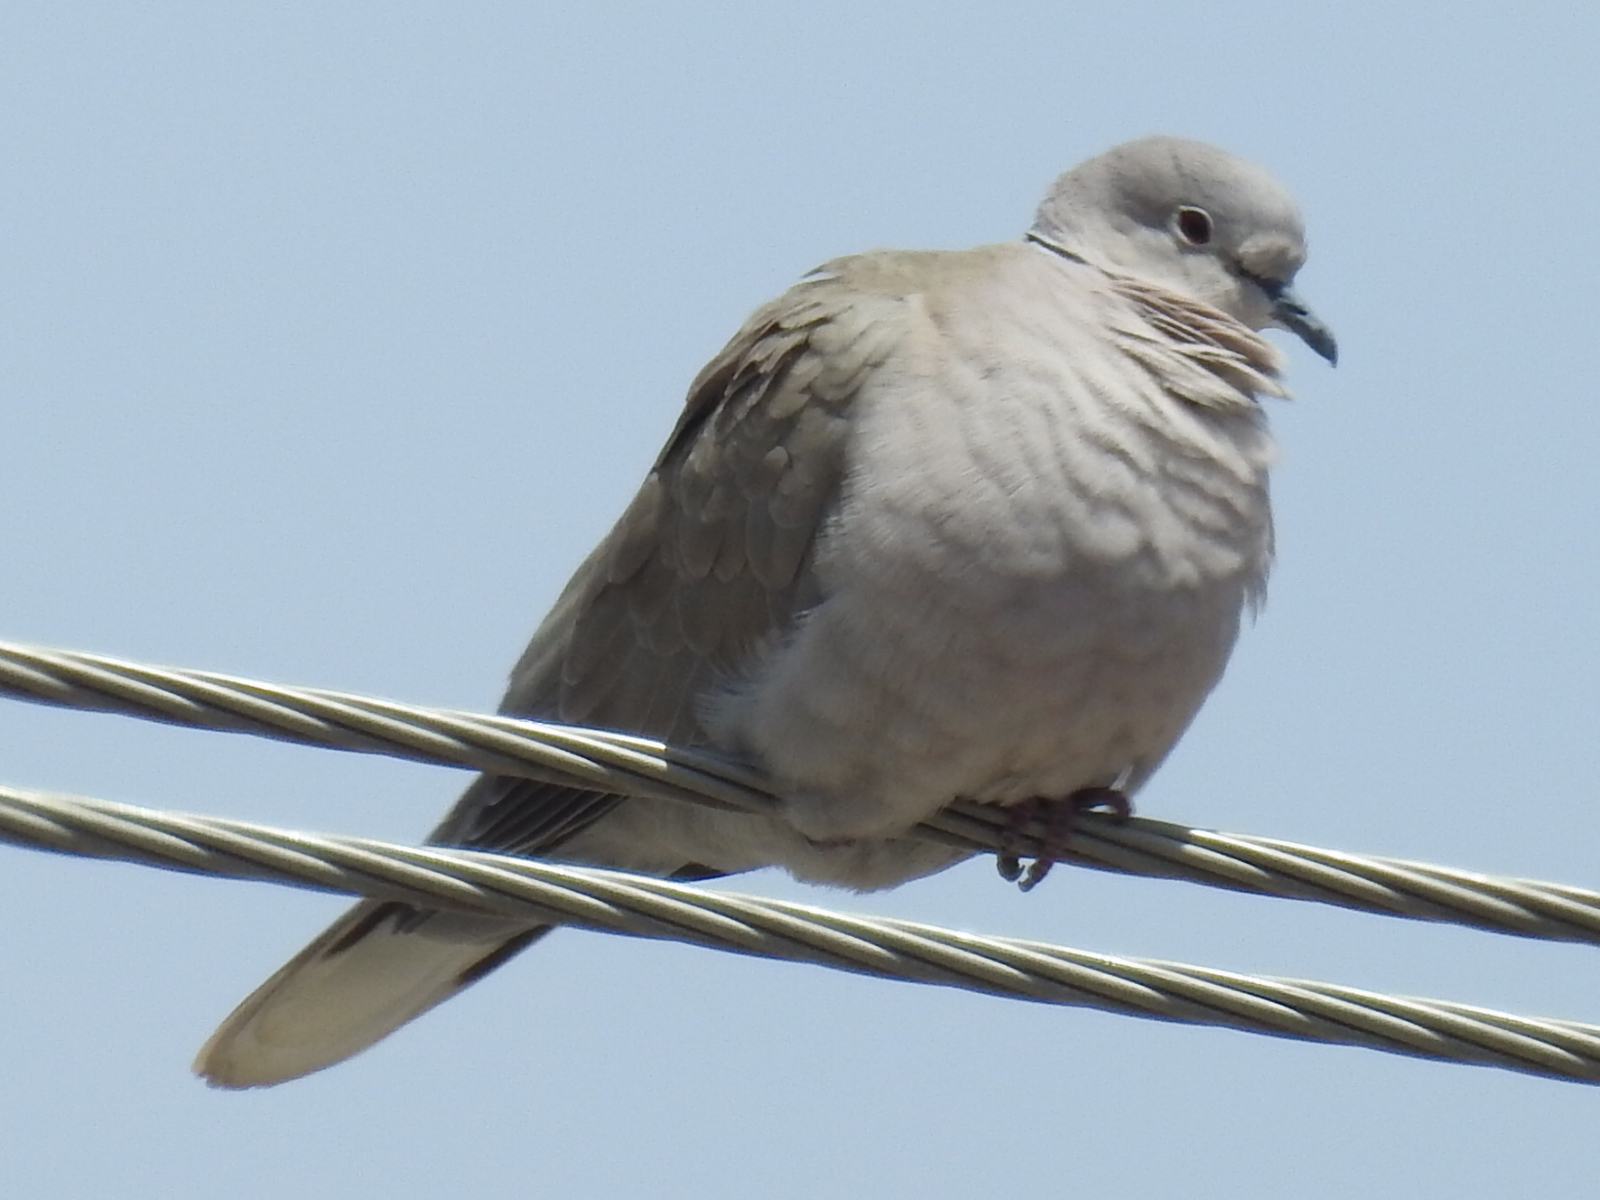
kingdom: Animalia
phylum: Chordata
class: Aves
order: Columbiformes
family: Columbidae
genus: Streptopelia
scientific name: Streptopelia decaocto
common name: Eurasian collared dove
